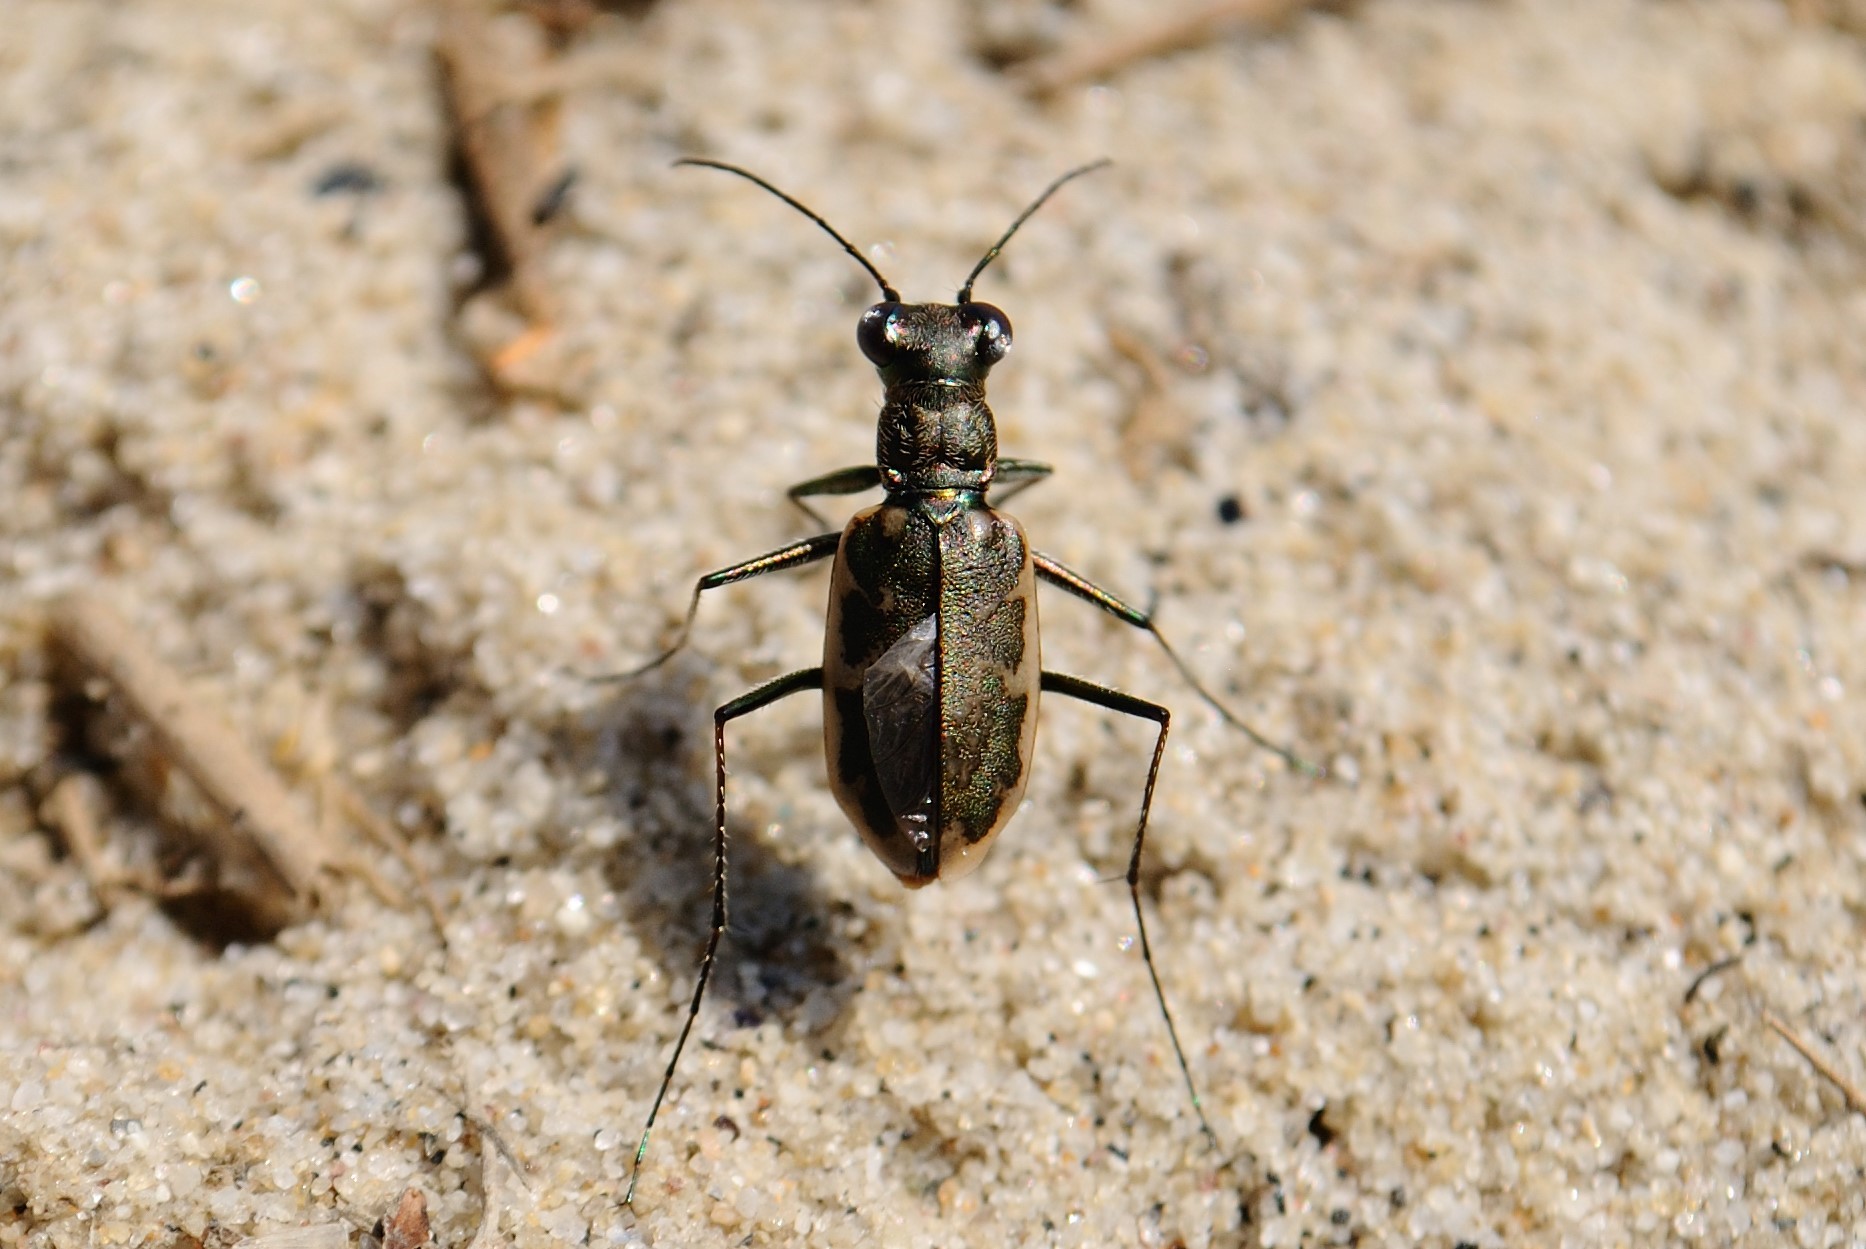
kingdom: Animalia
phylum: Arthropoda
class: Insecta
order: Coleoptera
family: Carabidae
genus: Ellipsoptera
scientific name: Ellipsoptera marginata
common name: Margined tiger beetle
